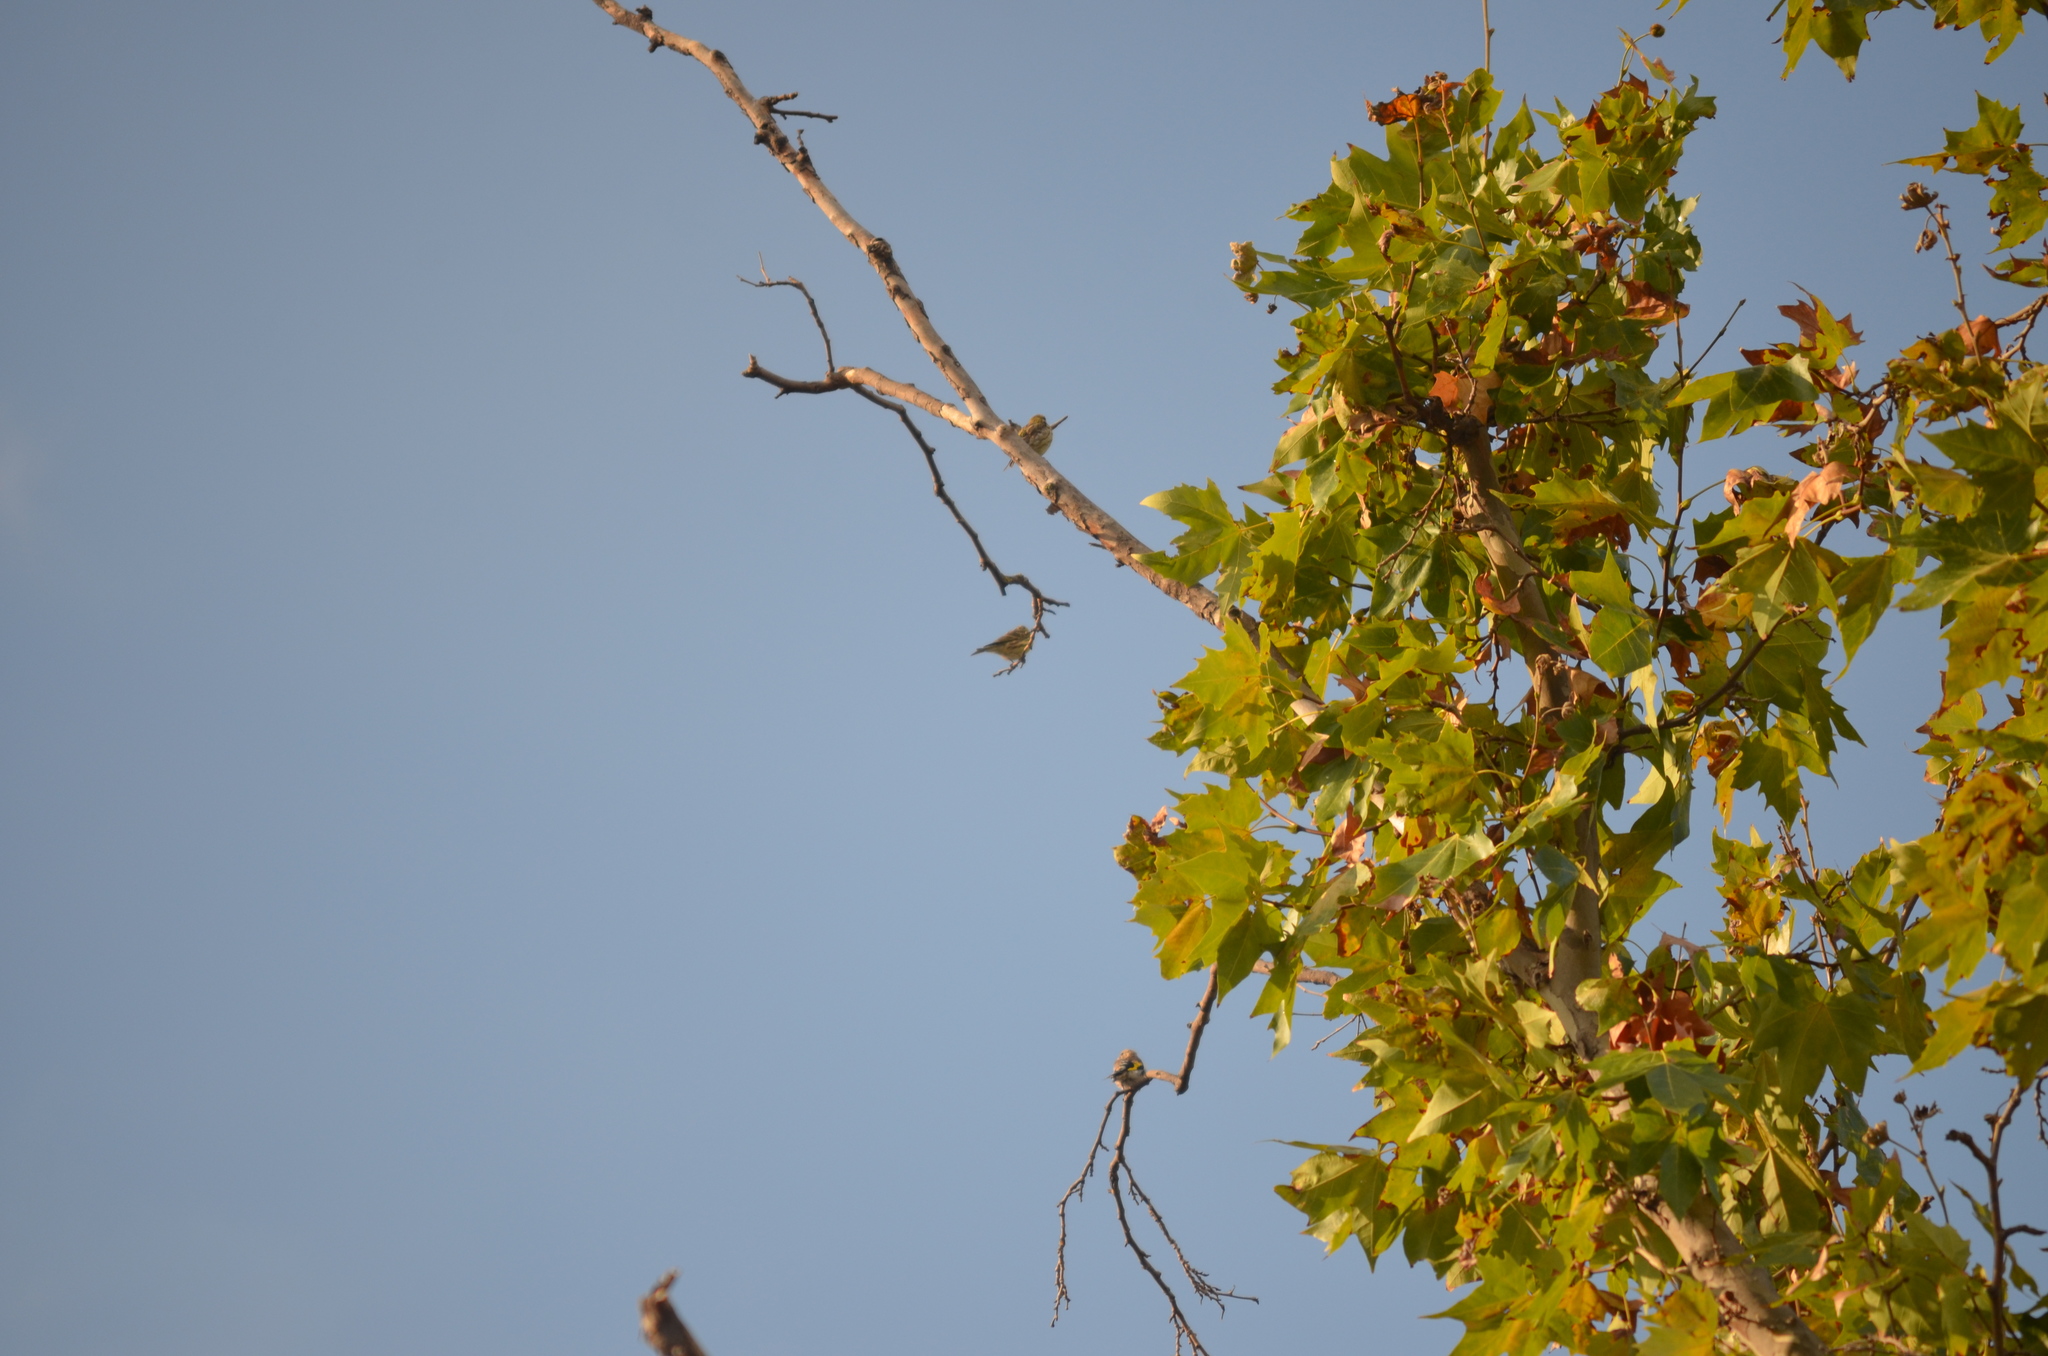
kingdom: Animalia
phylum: Chordata
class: Aves
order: Passeriformes
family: Fringillidae
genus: Serinus
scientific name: Serinus serinus
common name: European serin
